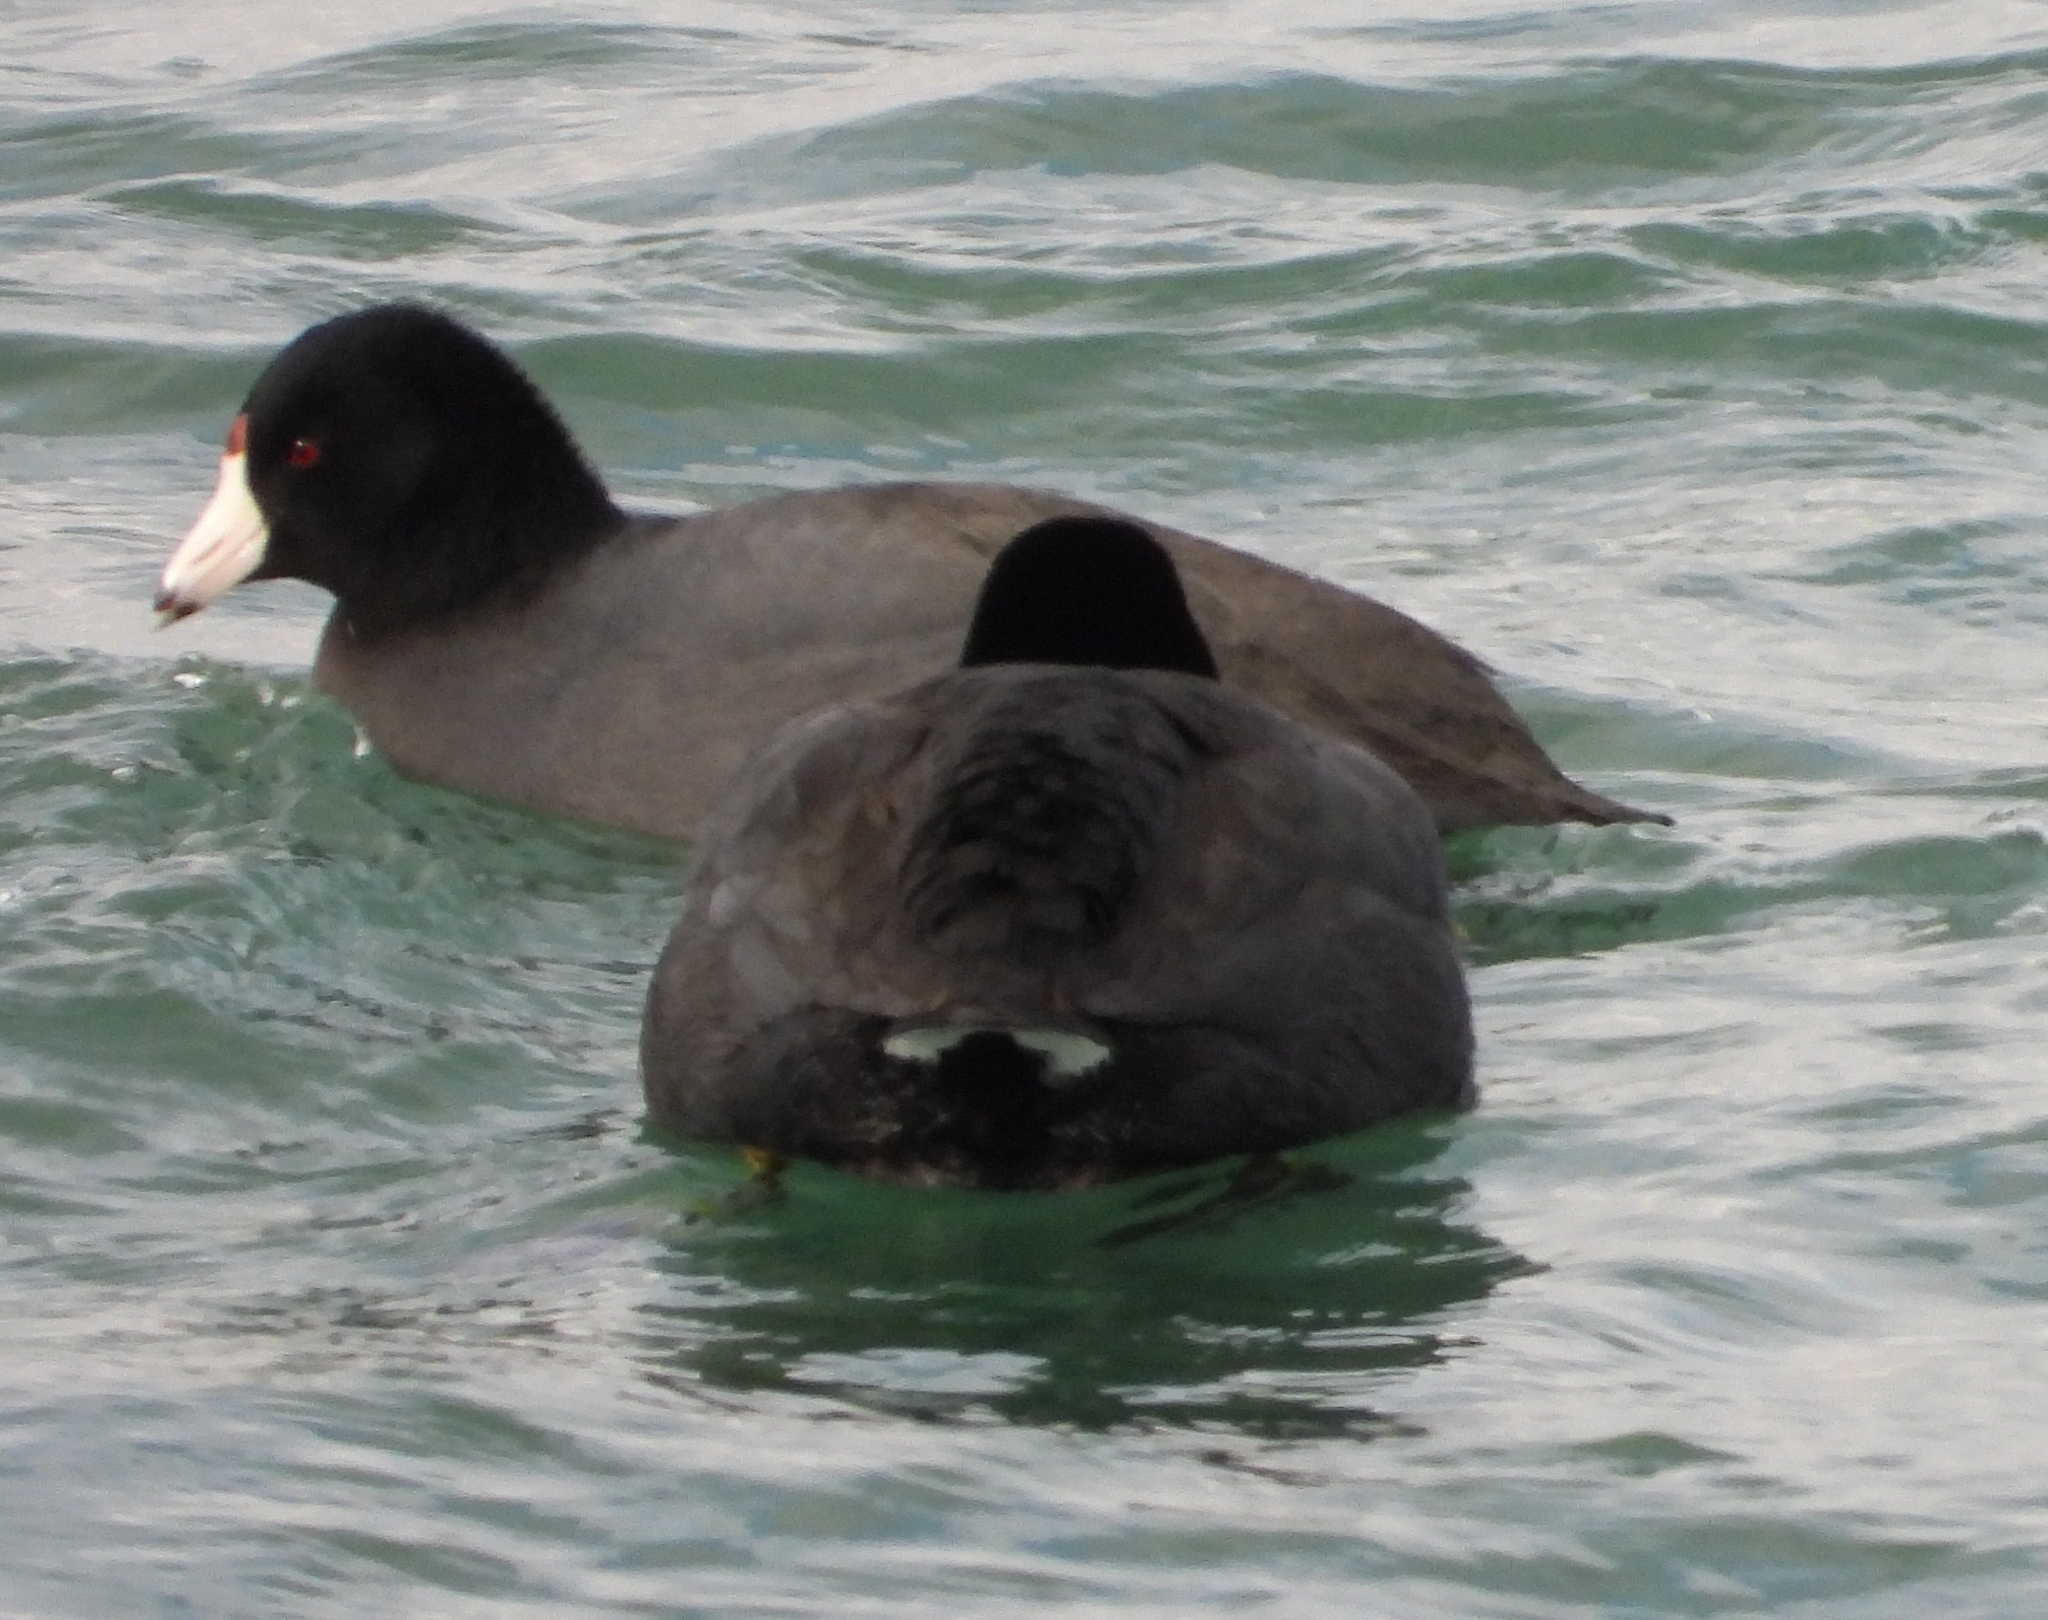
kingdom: Animalia
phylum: Chordata
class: Aves
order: Gruiformes
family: Rallidae
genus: Fulica
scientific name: Fulica americana
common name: American coot
